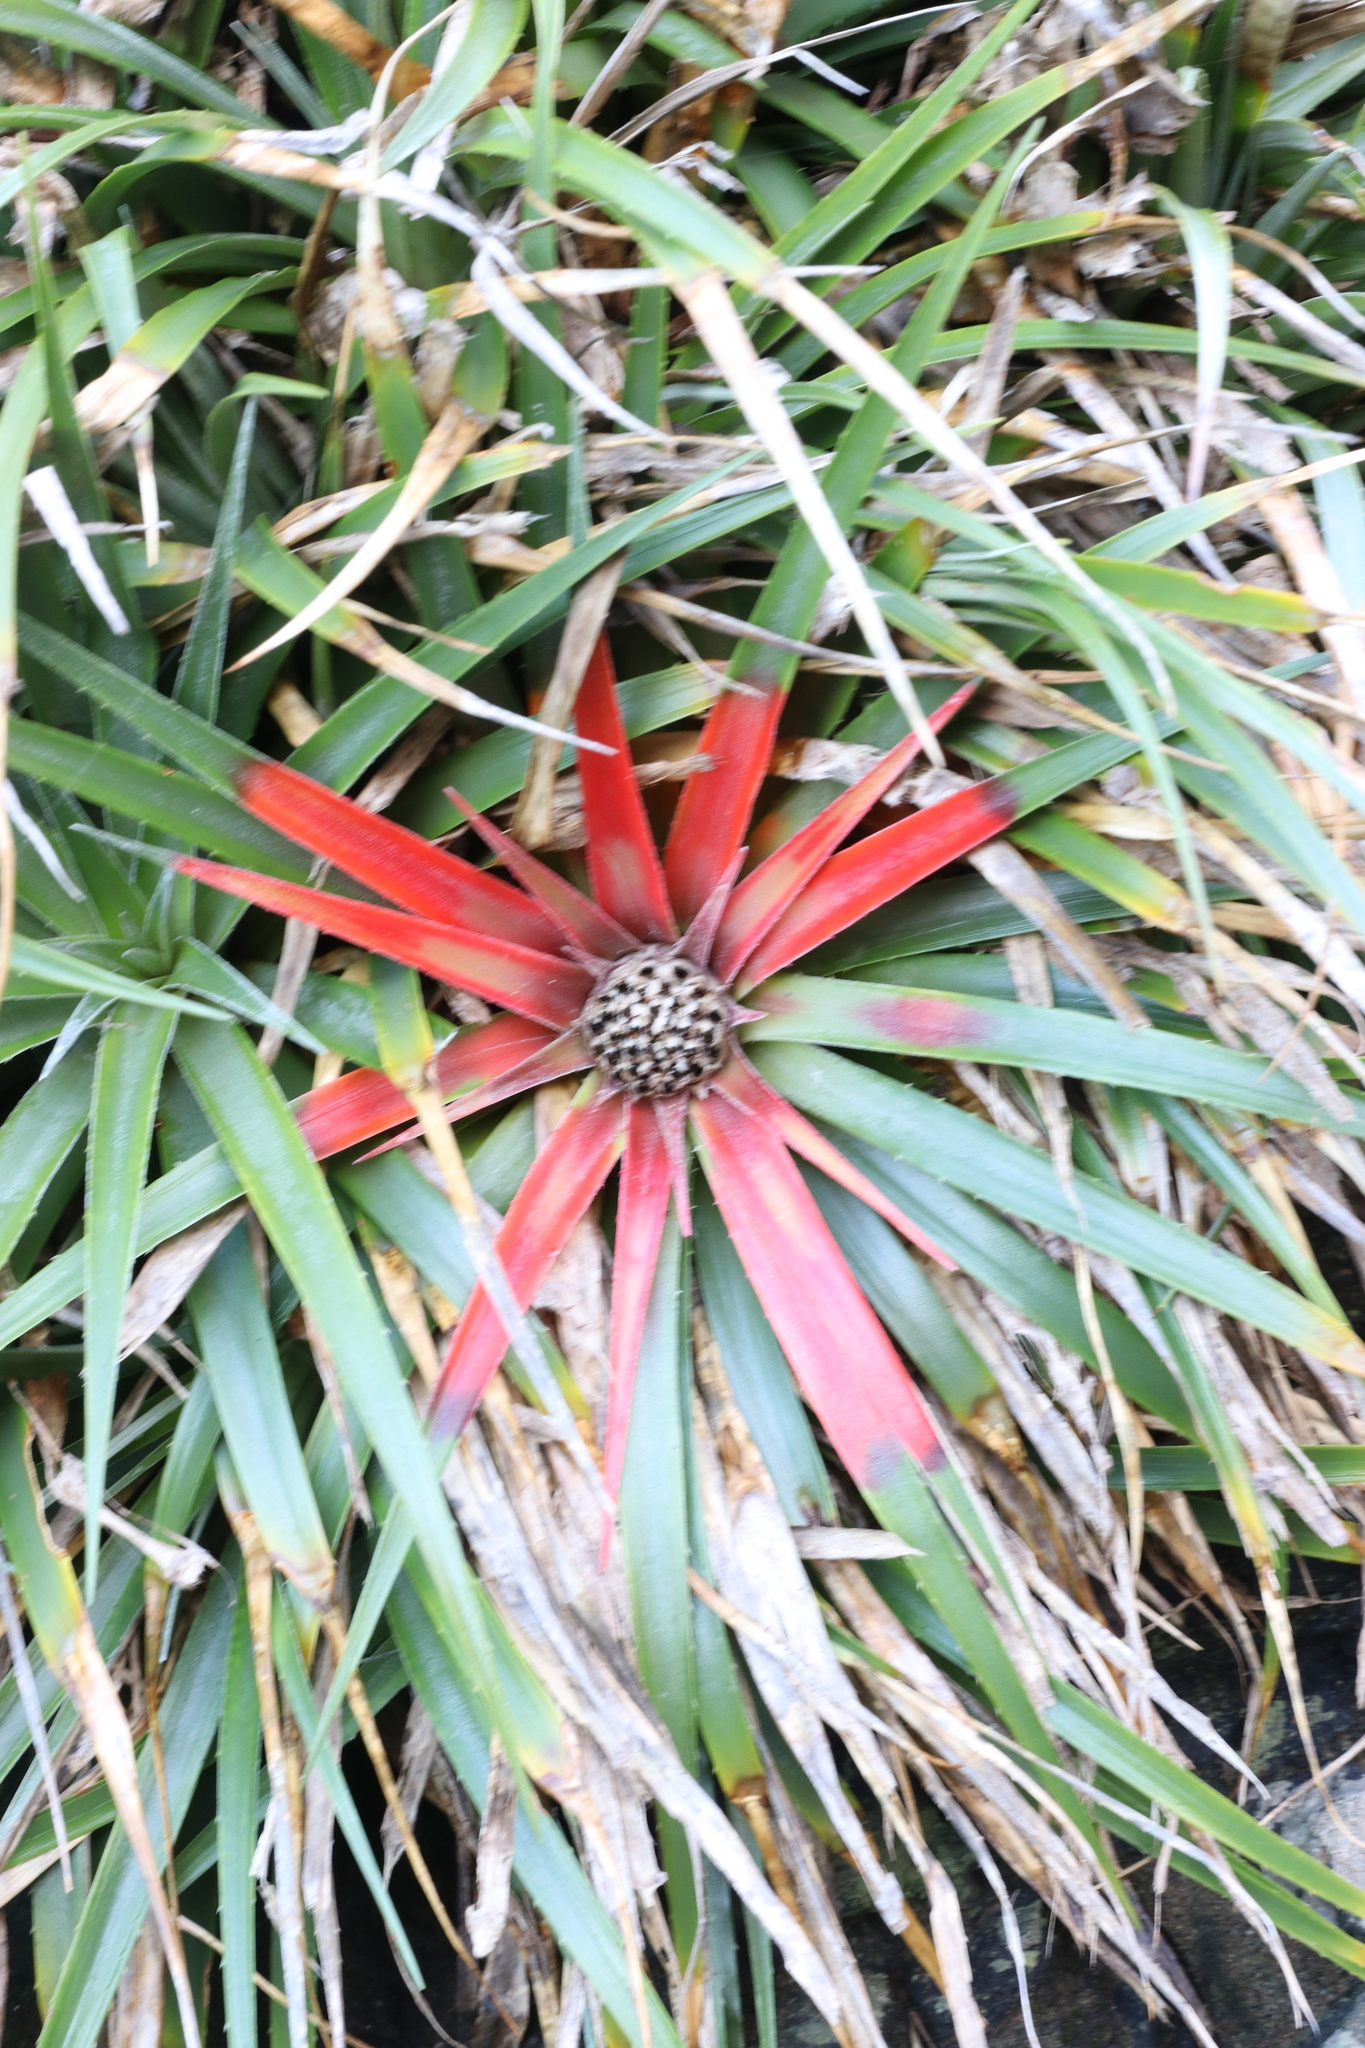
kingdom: Plantae
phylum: Tracheophyta
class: Liliopsida
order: Poales
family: Bromeliaceae
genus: Fascicularia
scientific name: Fascicularia bicolor
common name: Rhodostachys
